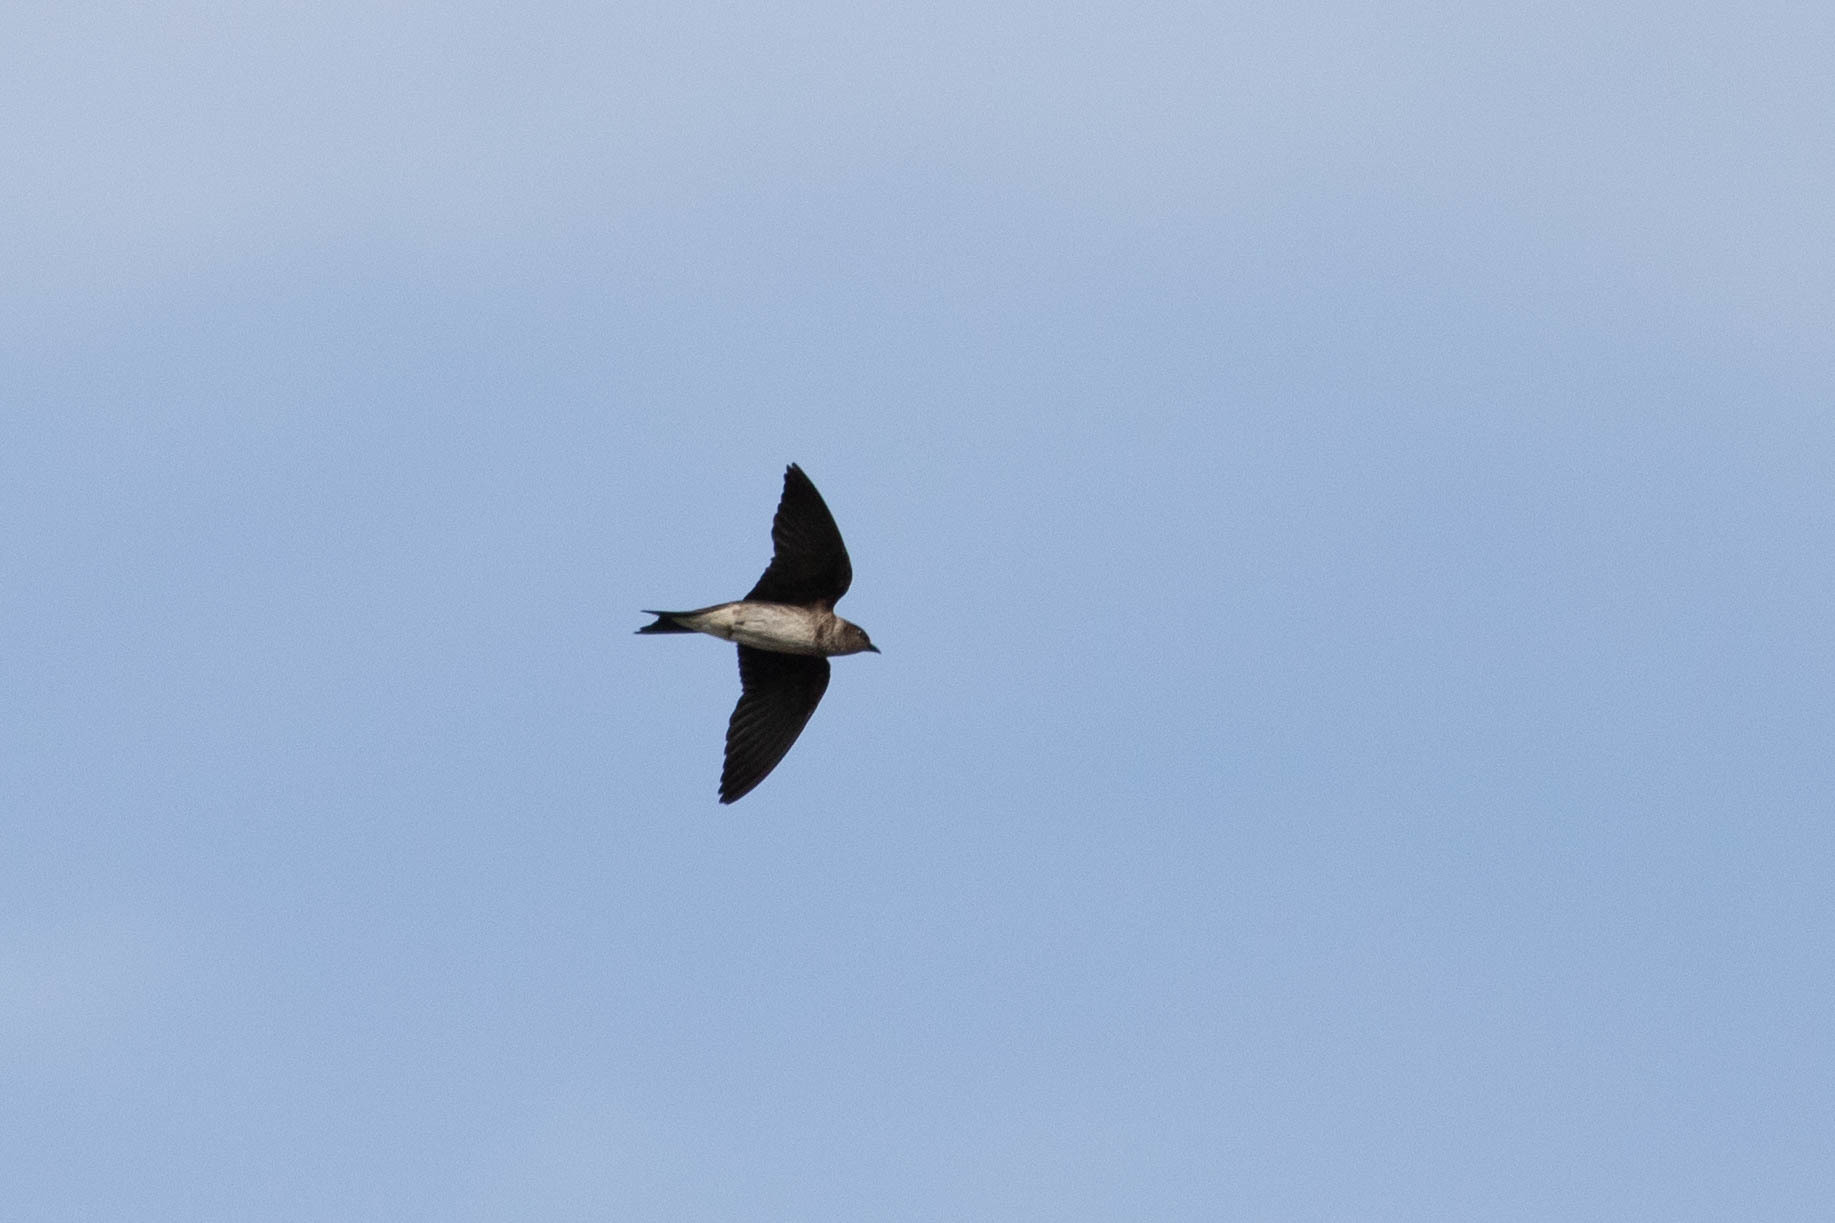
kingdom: Animalia
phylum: Chordata
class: Aves
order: Passeriformes
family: Hirundinidae
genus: Progne
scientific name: Progne subis
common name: Purple martin
